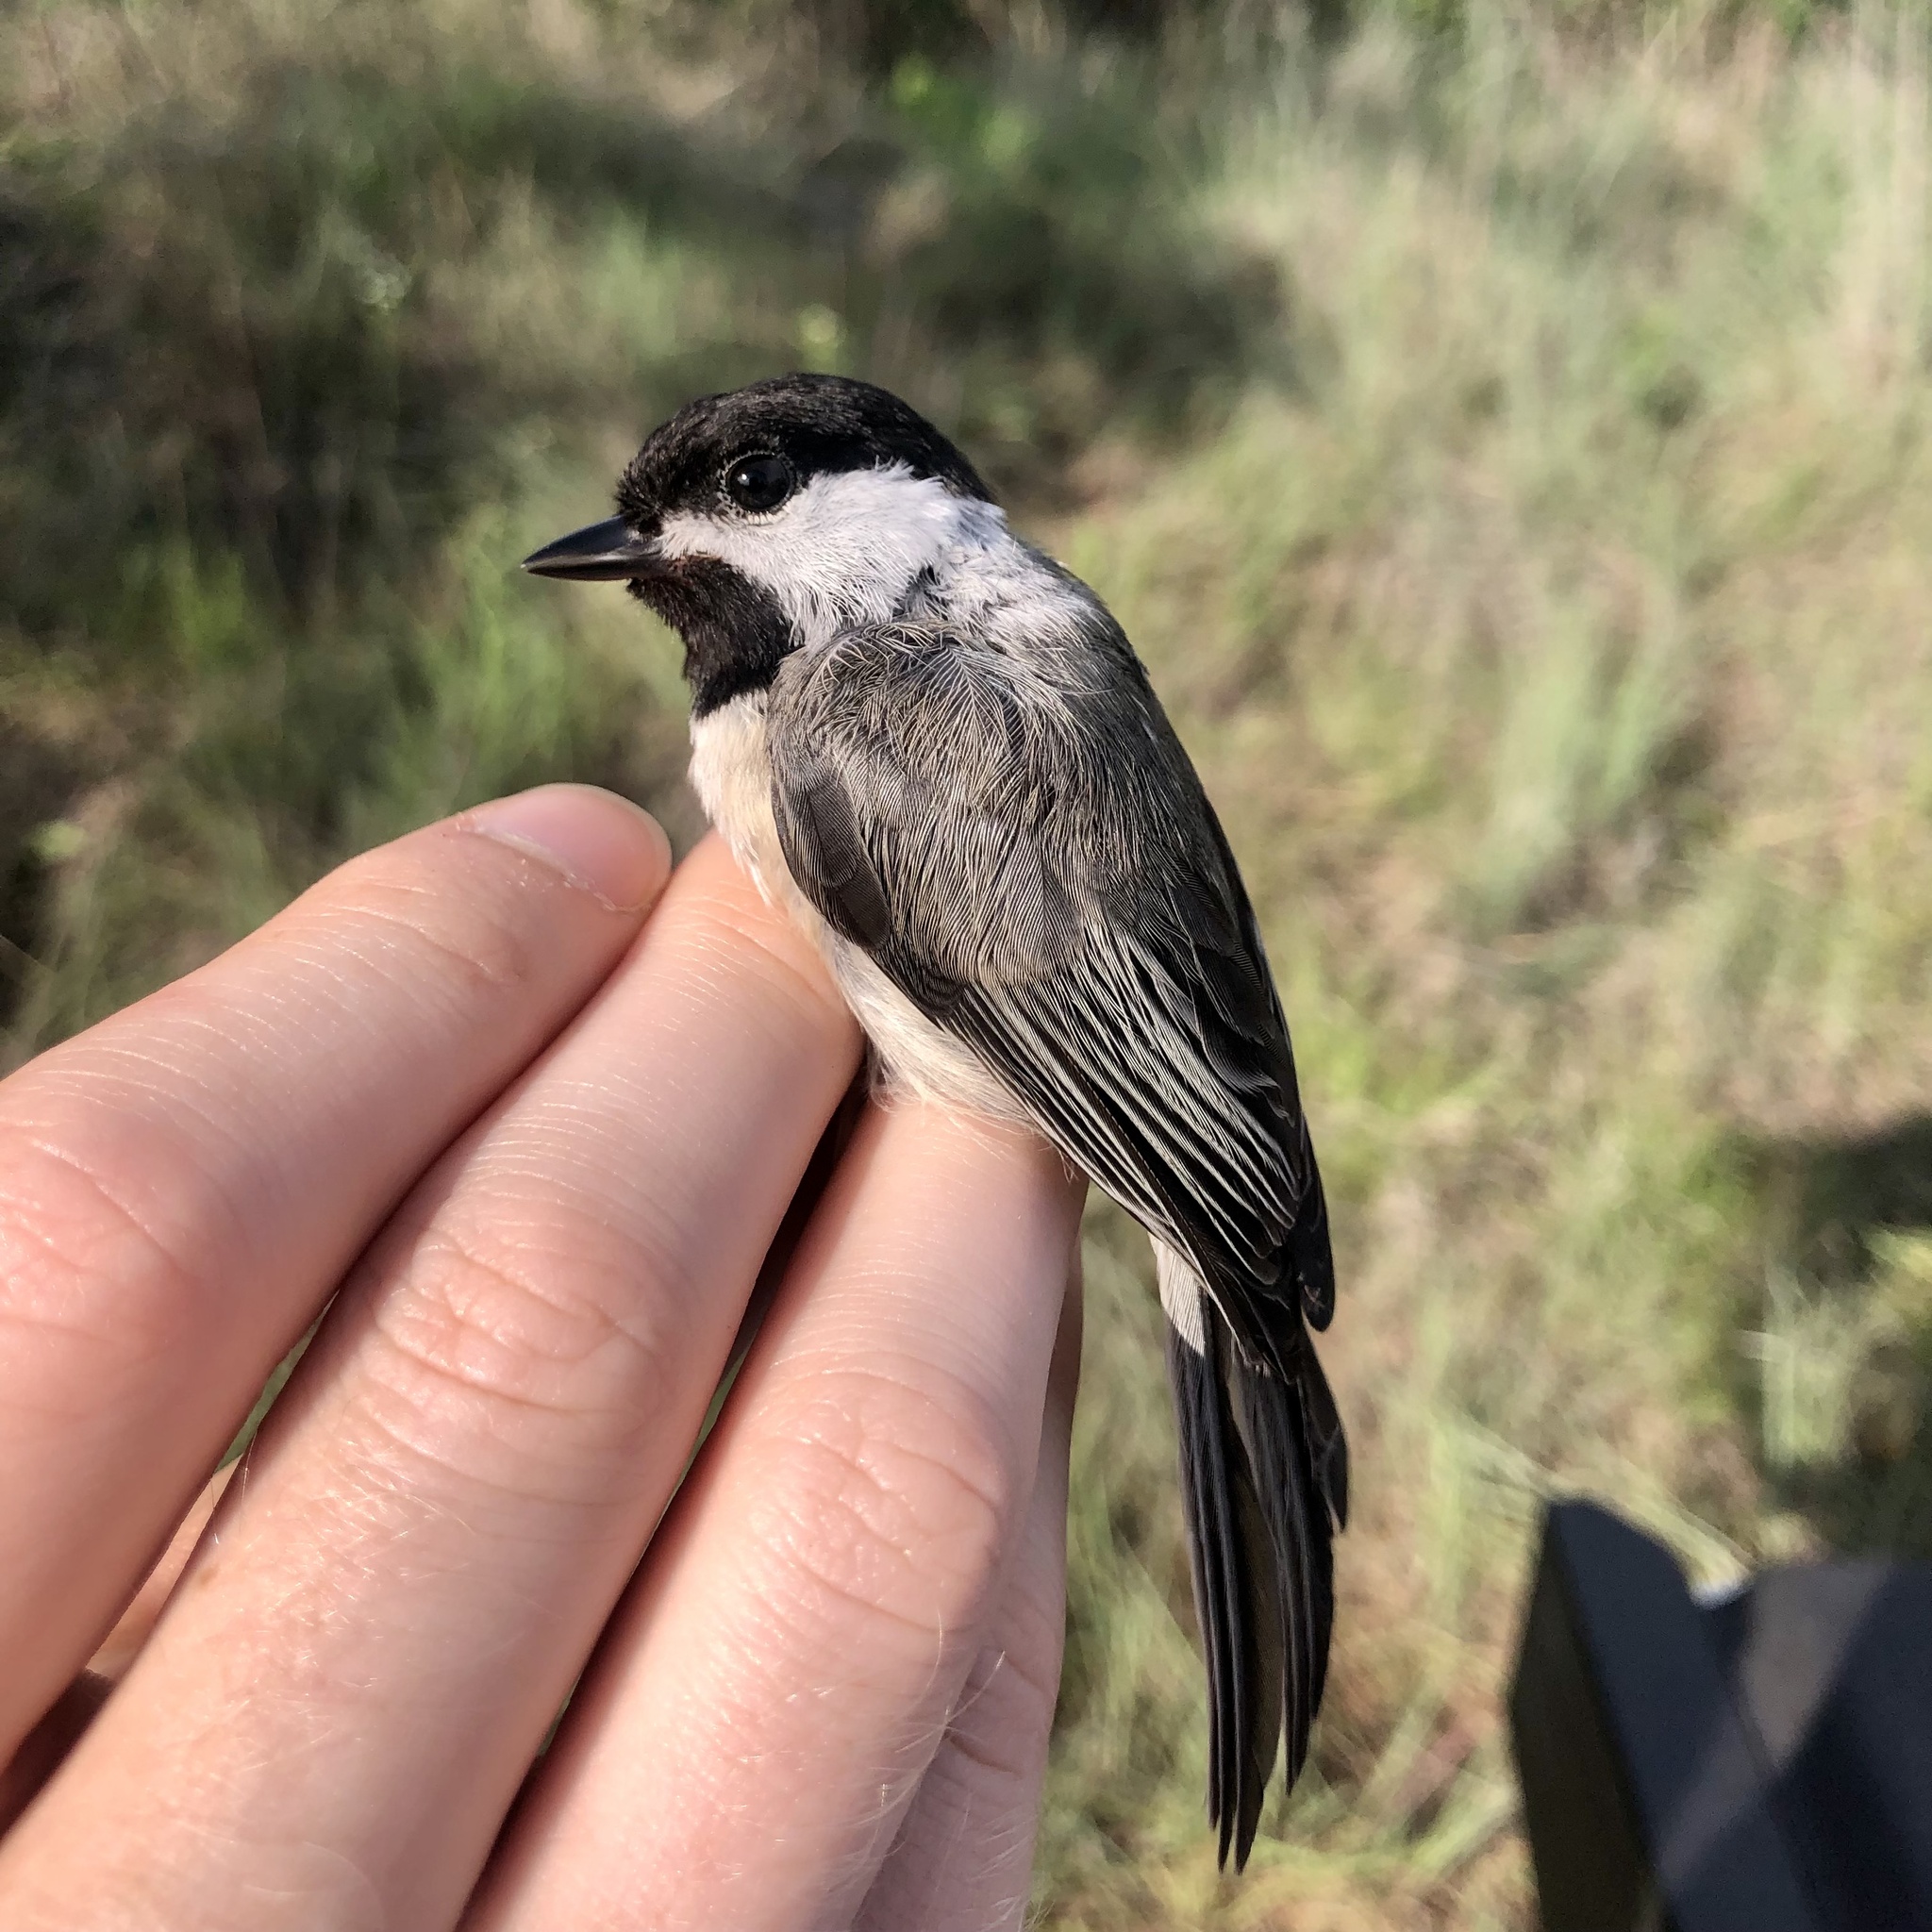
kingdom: Animalia
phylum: Chordata
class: Aves
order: Passeriformes
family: Paridae
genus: Poecile
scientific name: Poecile carolinensis
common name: Carolina chickadee
